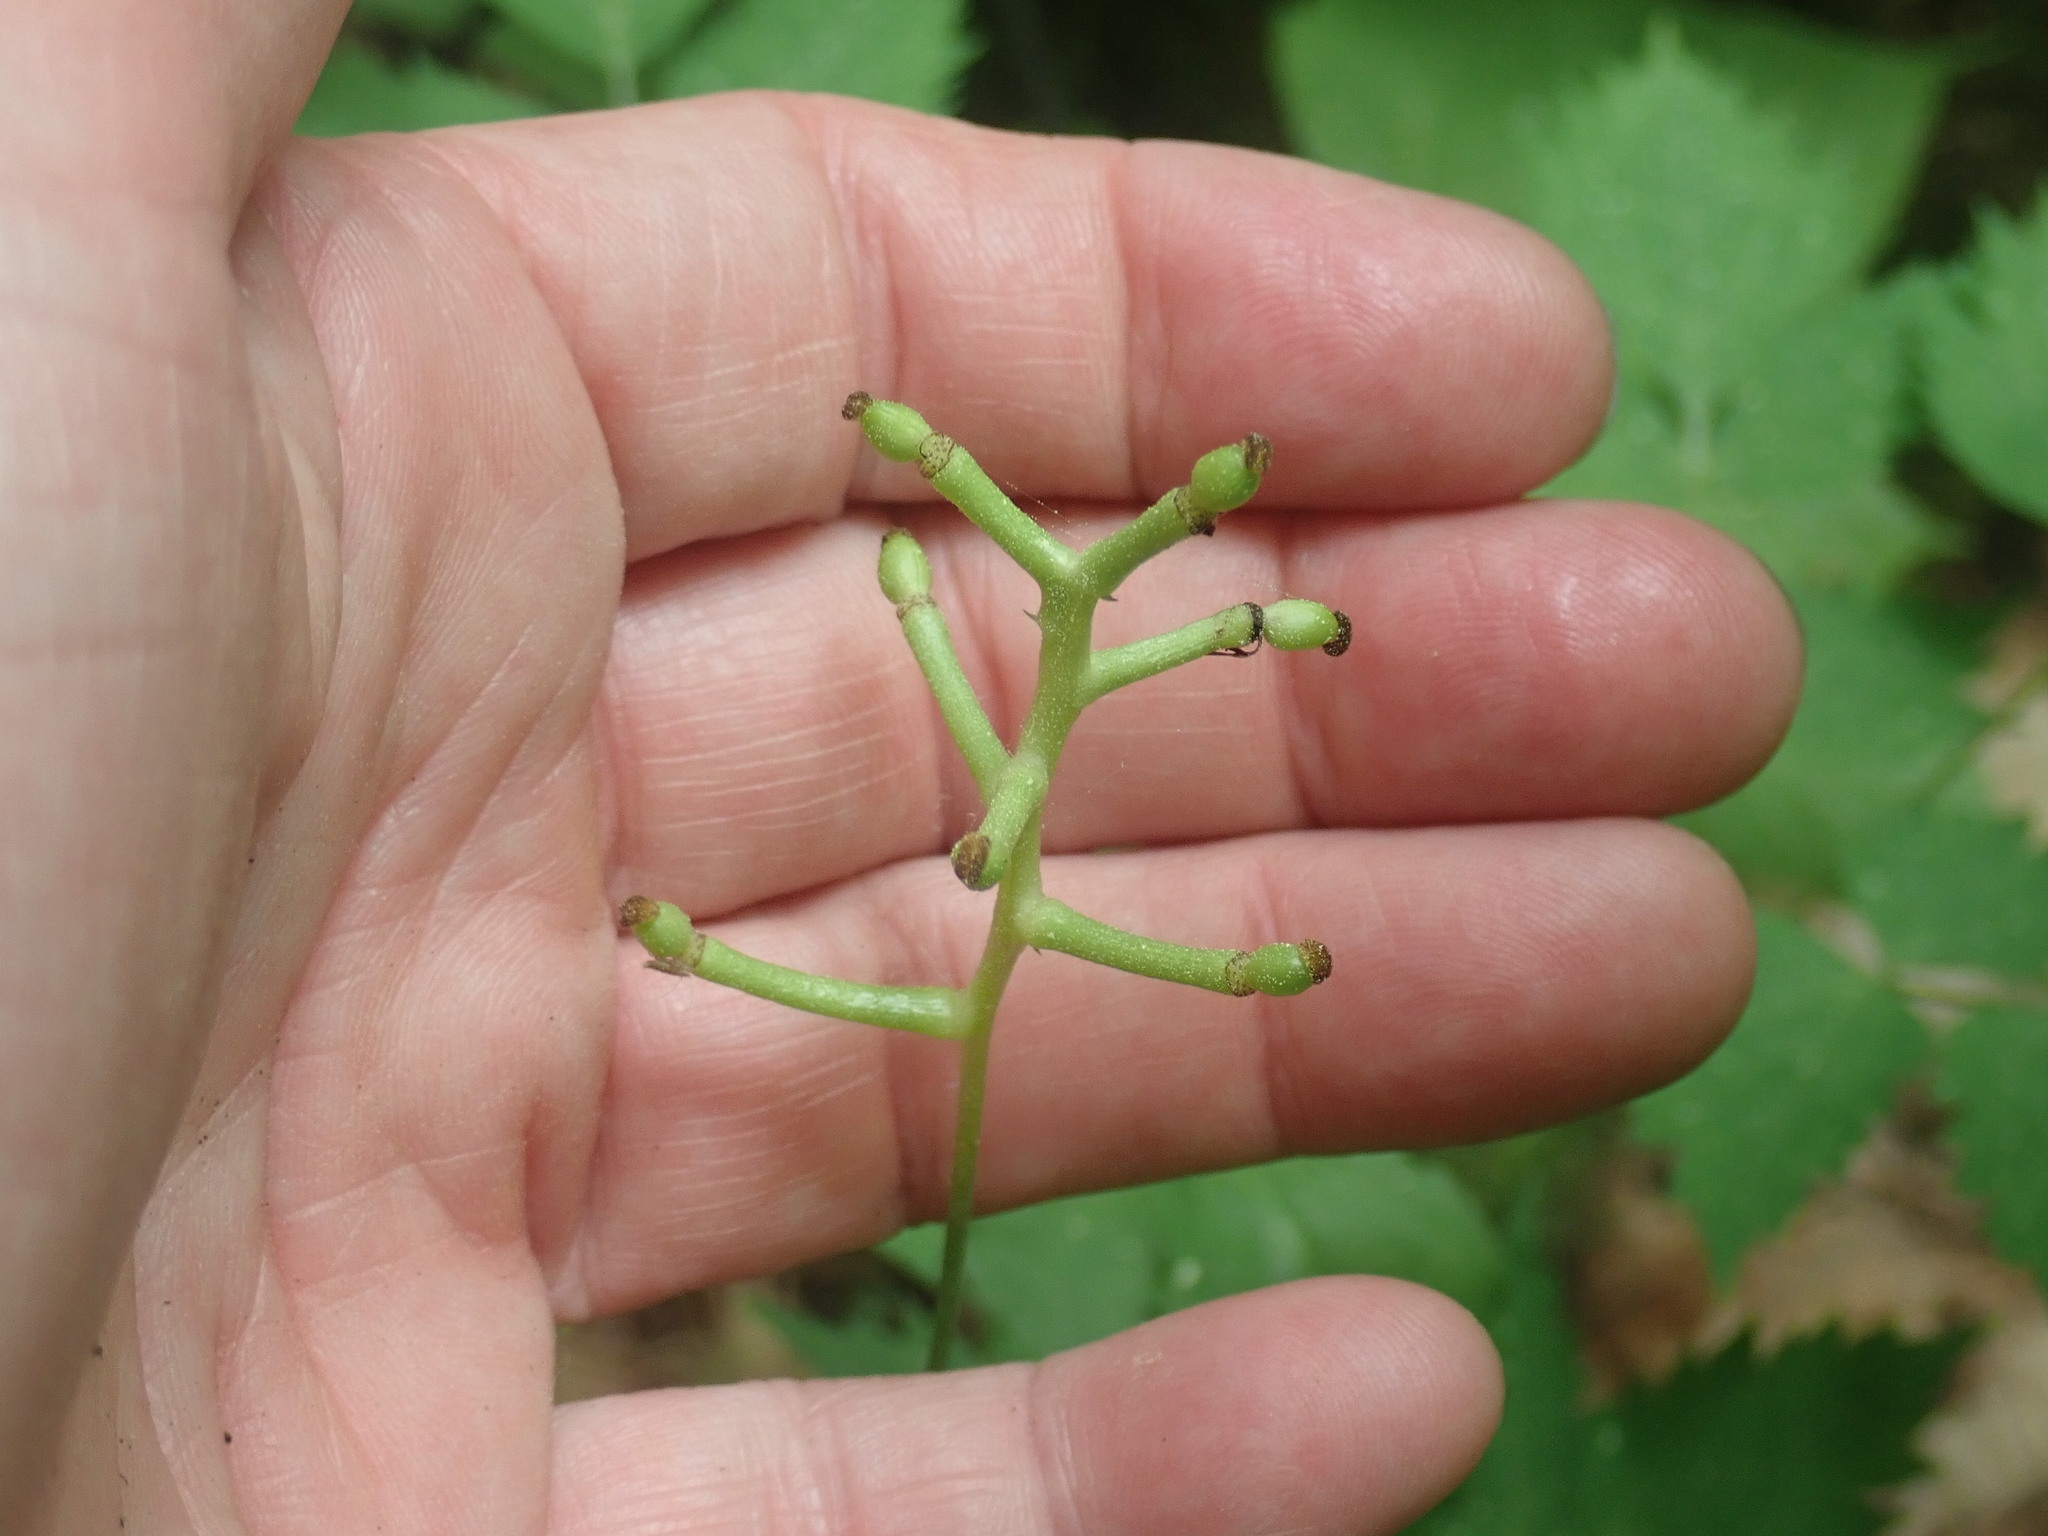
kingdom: Plantae
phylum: Tracheophyta
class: Magnoliopsida
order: Ranunculales
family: Ranunculaceae
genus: Actaea
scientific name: Actaea pachypoda
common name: Doll's-eyes
